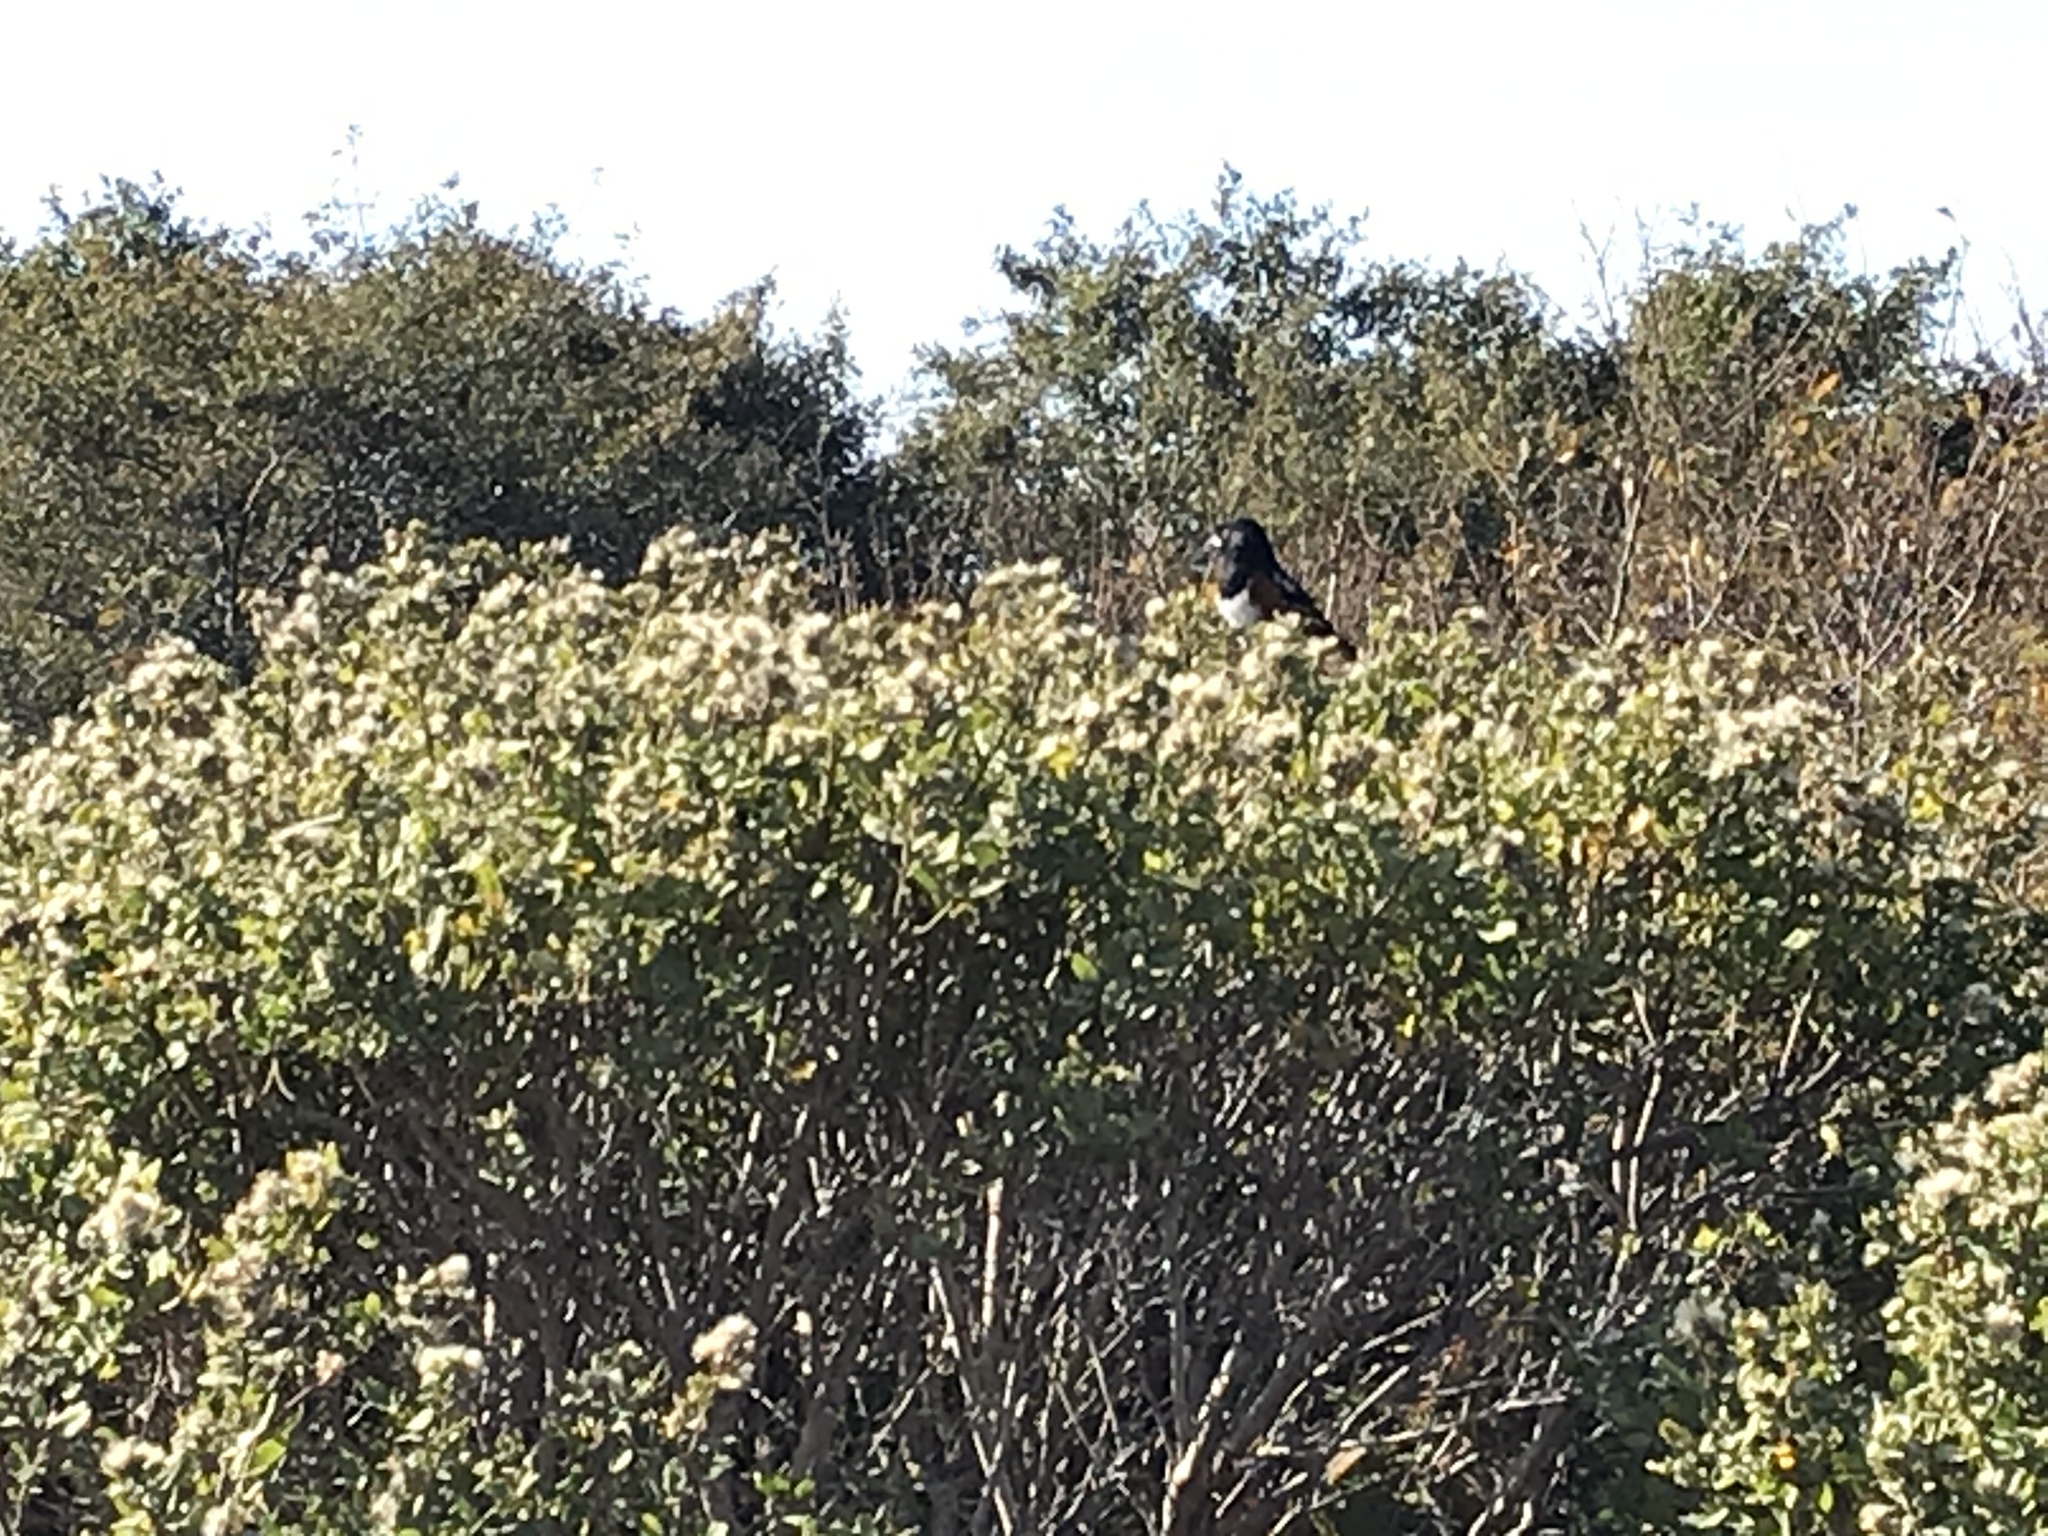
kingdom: Animalia
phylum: Chordata
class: Aves
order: Passeriformes
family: Passerellidae
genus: Pipilo
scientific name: Pipilo maculatus
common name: Spotted towhee
